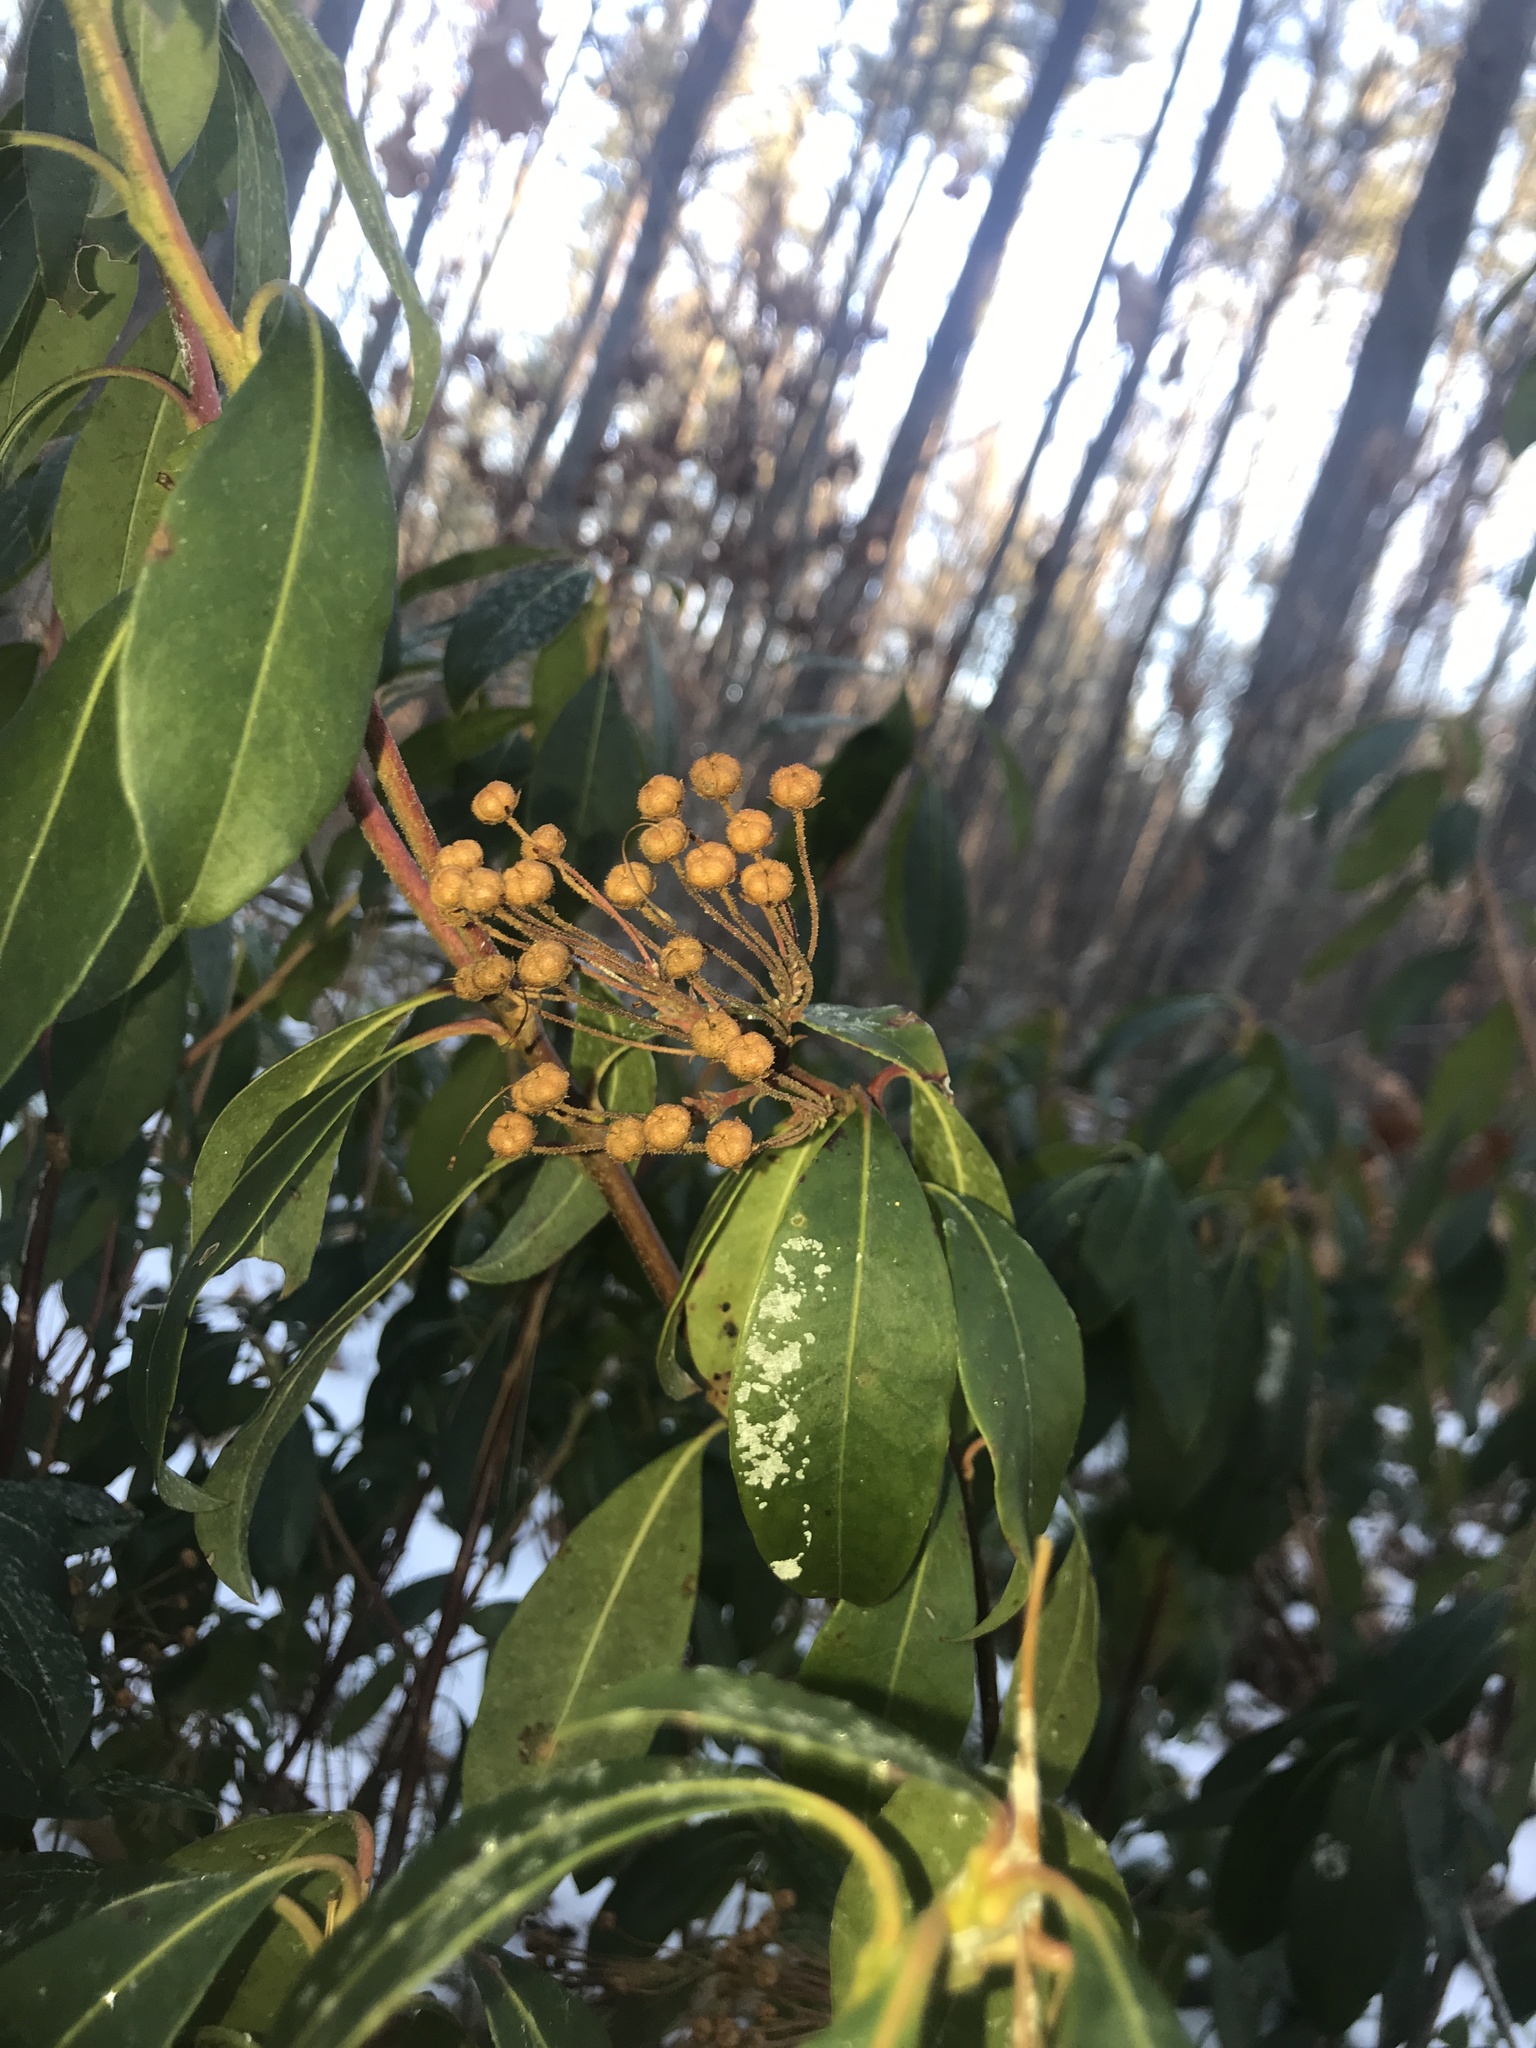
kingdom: Plantae
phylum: Tracheophyta
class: Magnoliopsida
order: Ericales
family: Ericaceae
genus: Kalmia
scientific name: Kalmia latifolia
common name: Mountain-laurel
